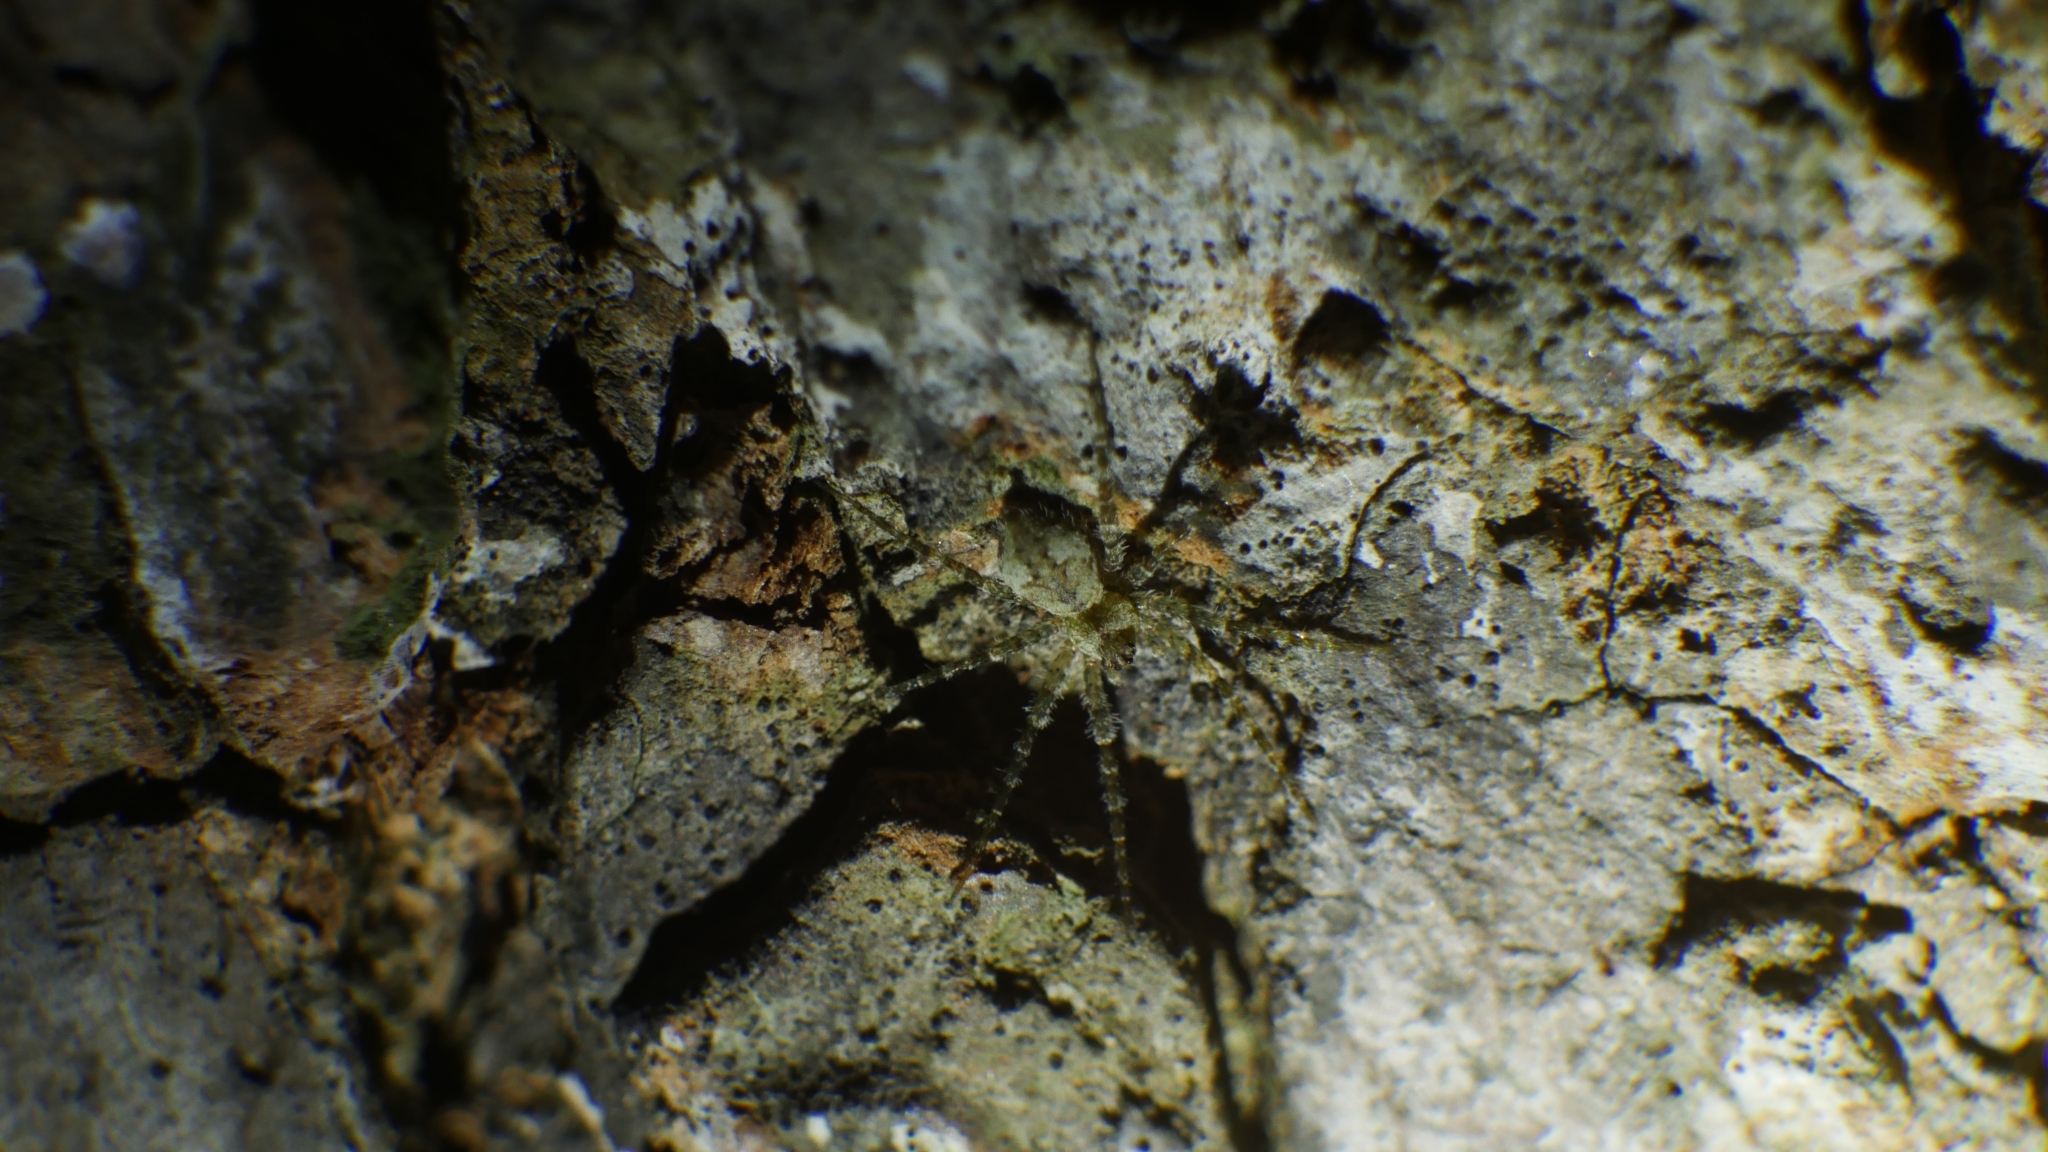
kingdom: Animalia
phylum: Arthropoda
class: Arachnida
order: Araneae
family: Pisauridae
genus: Dolomedes
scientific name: Dolomedes albineus
